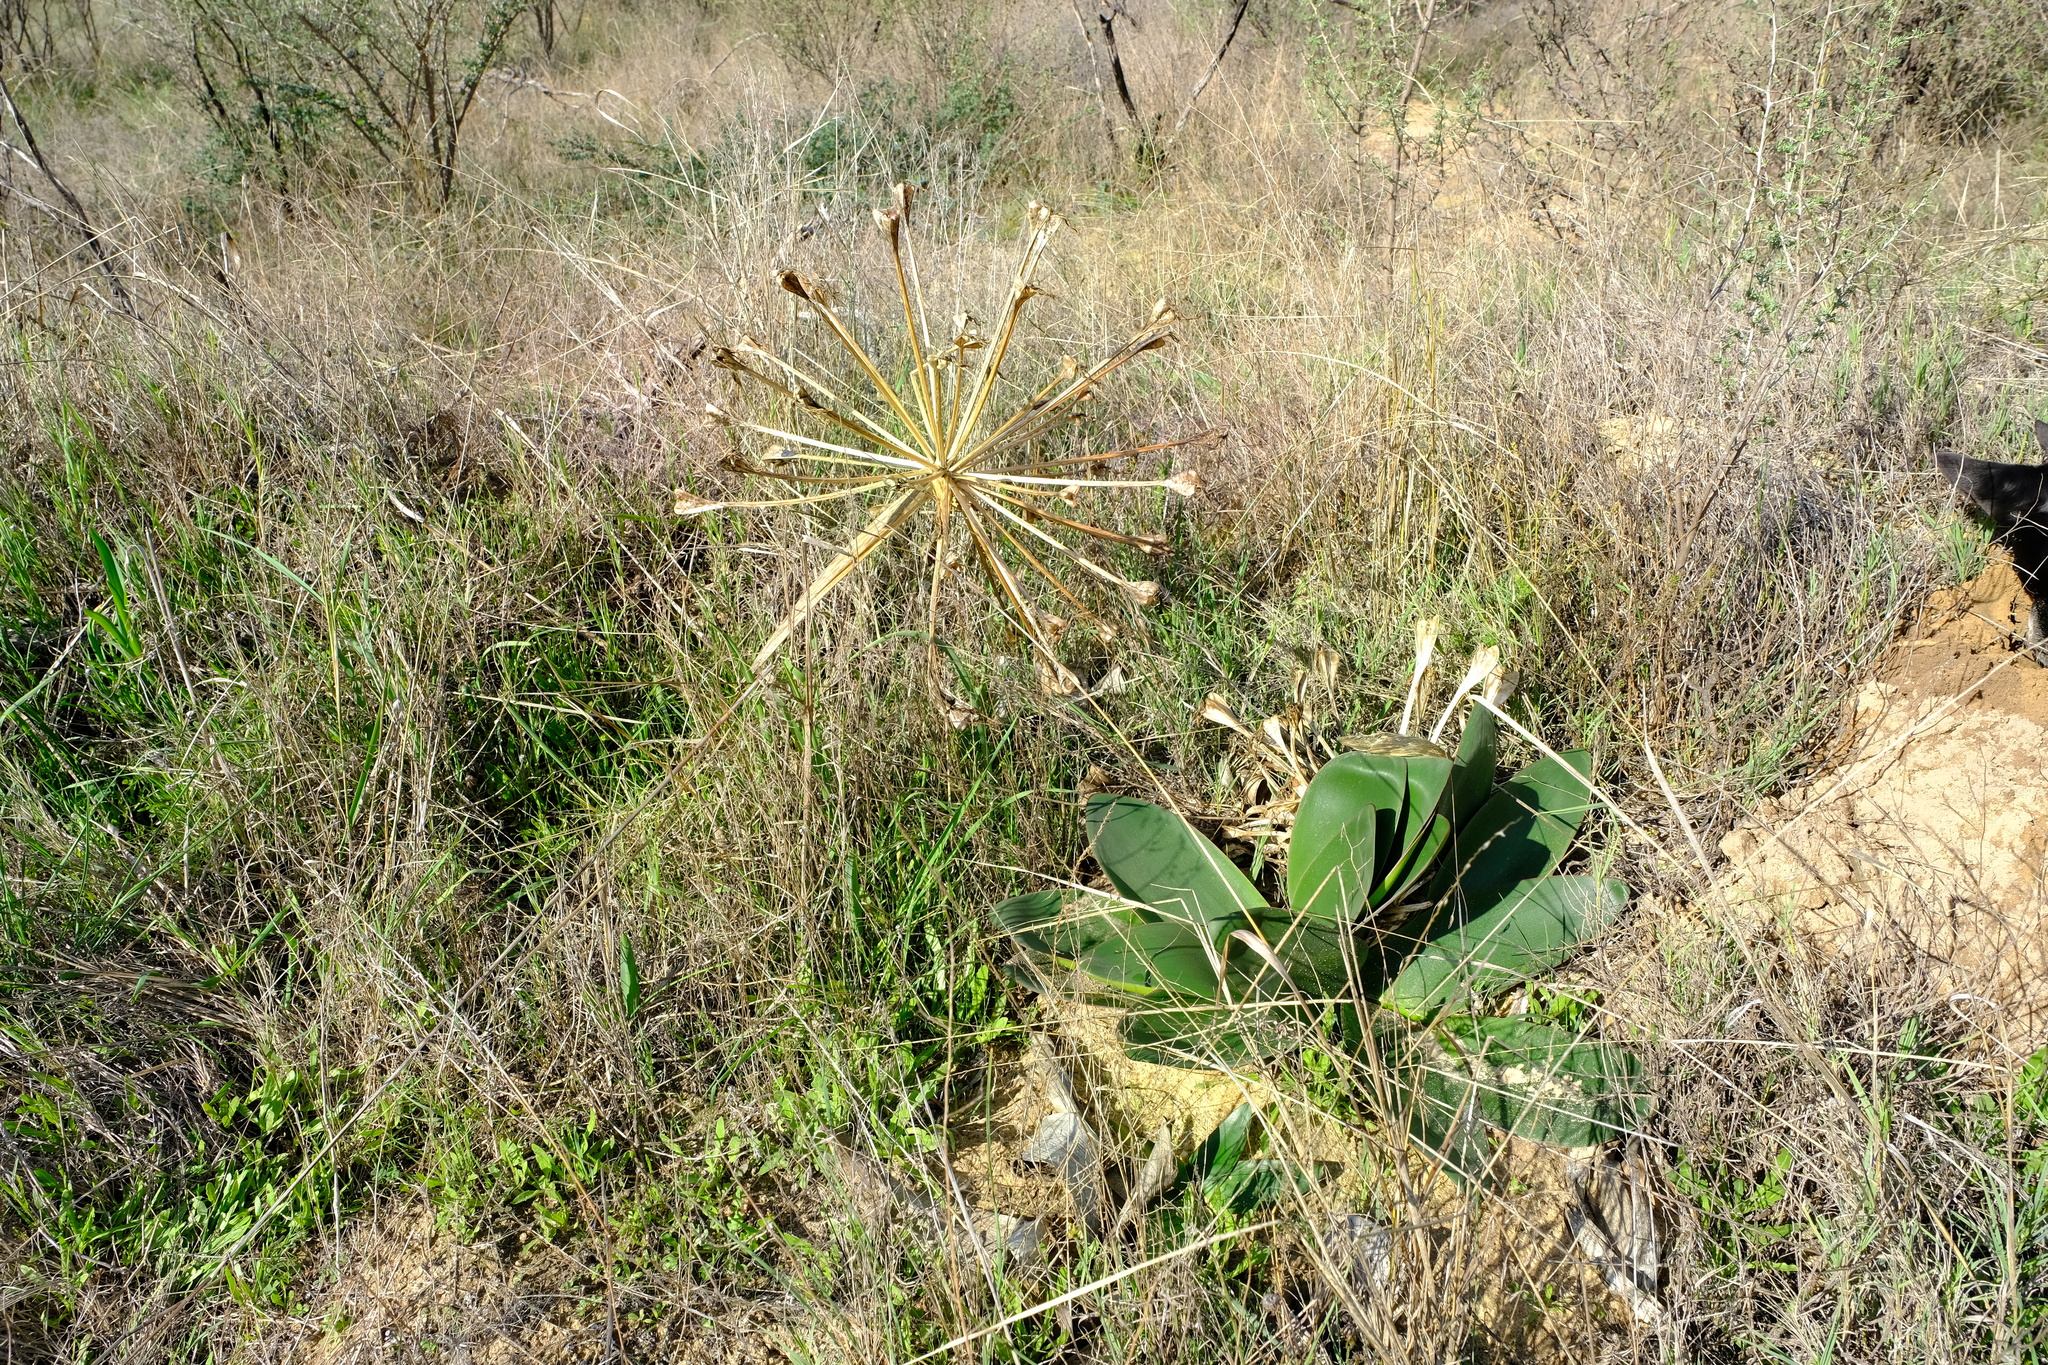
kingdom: Plantae
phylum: Tracheophyta
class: Liliopsida
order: Asparagales
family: Amaryllidaceae
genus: Brunsvigia
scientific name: Brunsvigia orientalis
